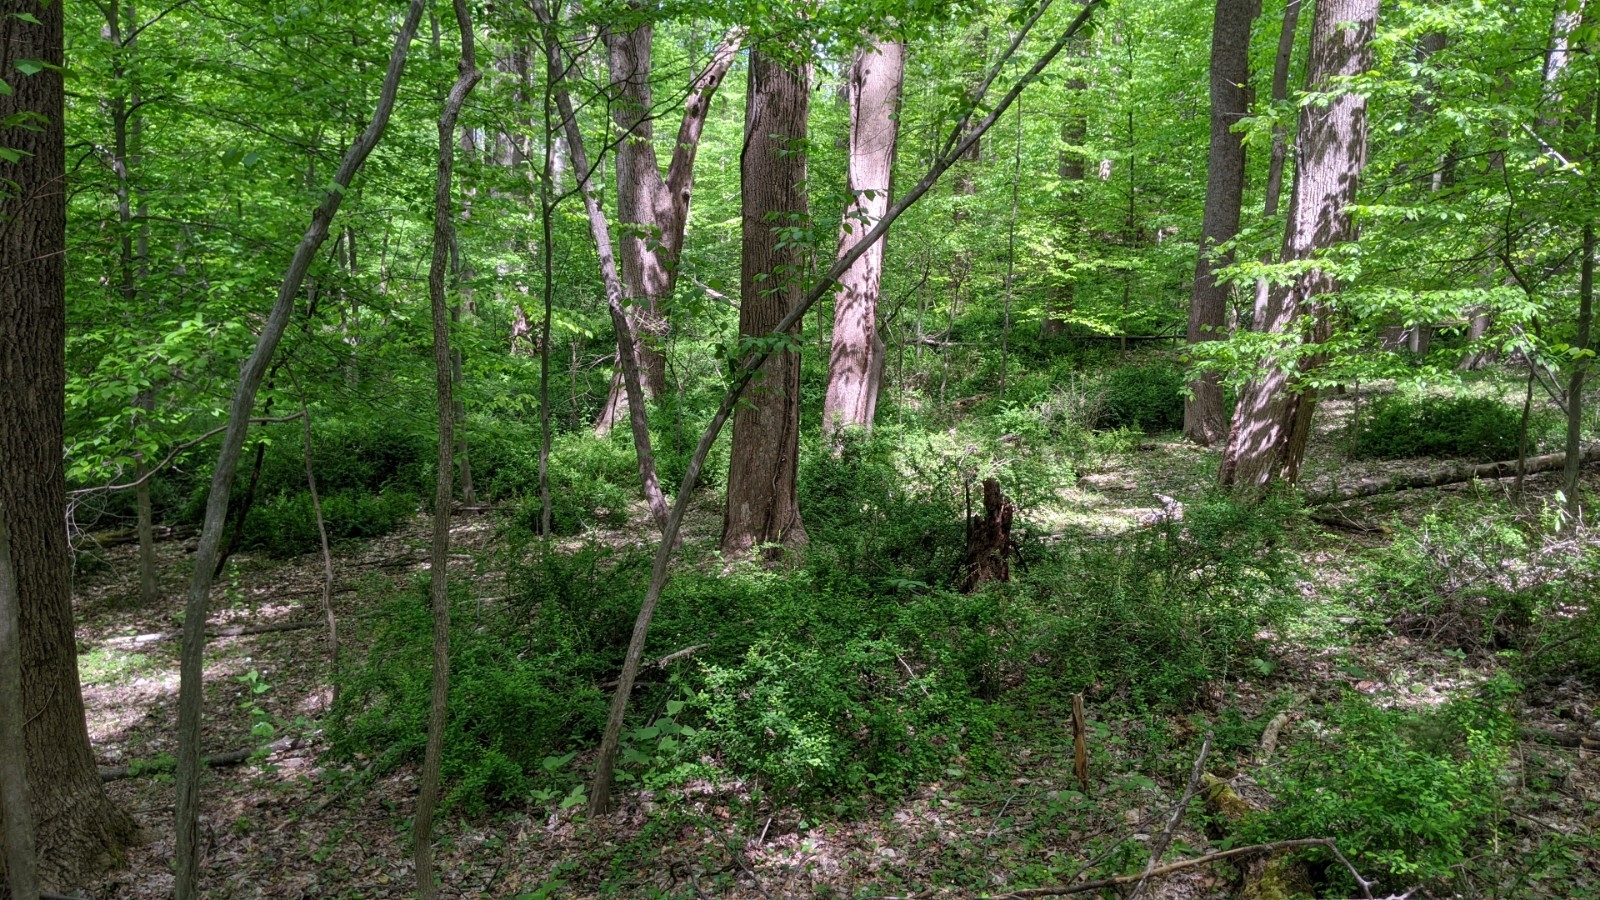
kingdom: Plantae
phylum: Tracheophyta
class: Magnoliopsida
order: Ranunculales
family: Berberidaceae
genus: Berberis
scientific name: Berberis thunbergii
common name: Japanese barberry
